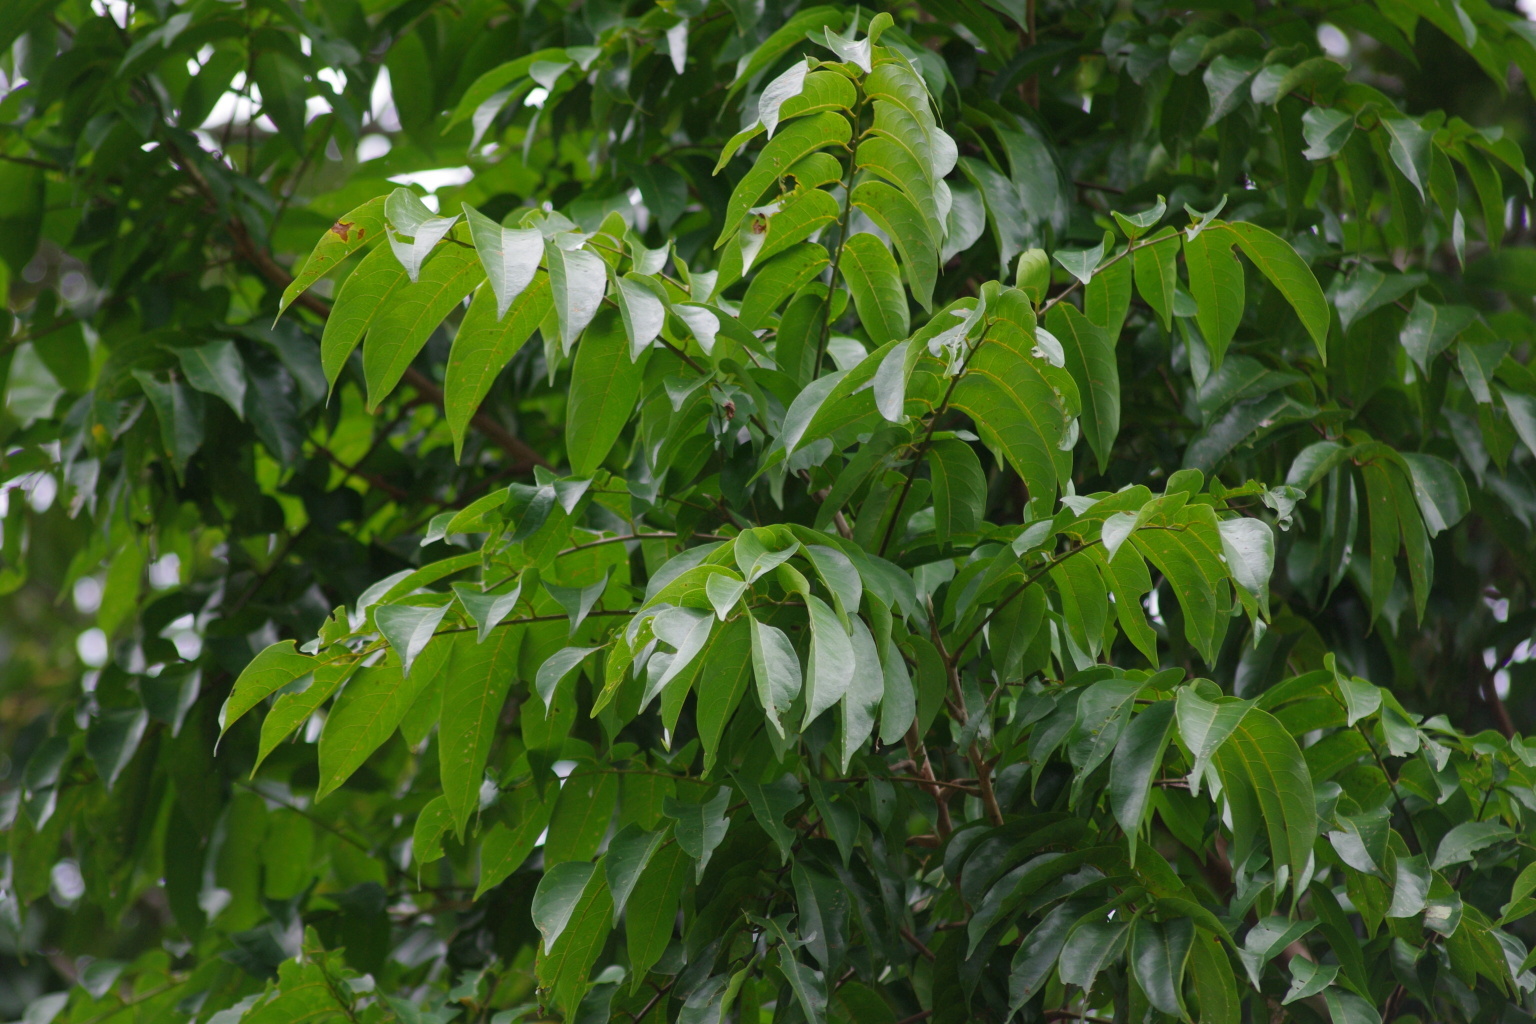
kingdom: Plantae
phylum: Tracheophyta
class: Magnoliopsida
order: Sapindales
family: Anacardiaceae
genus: Dracontomelon
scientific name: Dracontomelon dao
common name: Argus pheasant-tree
